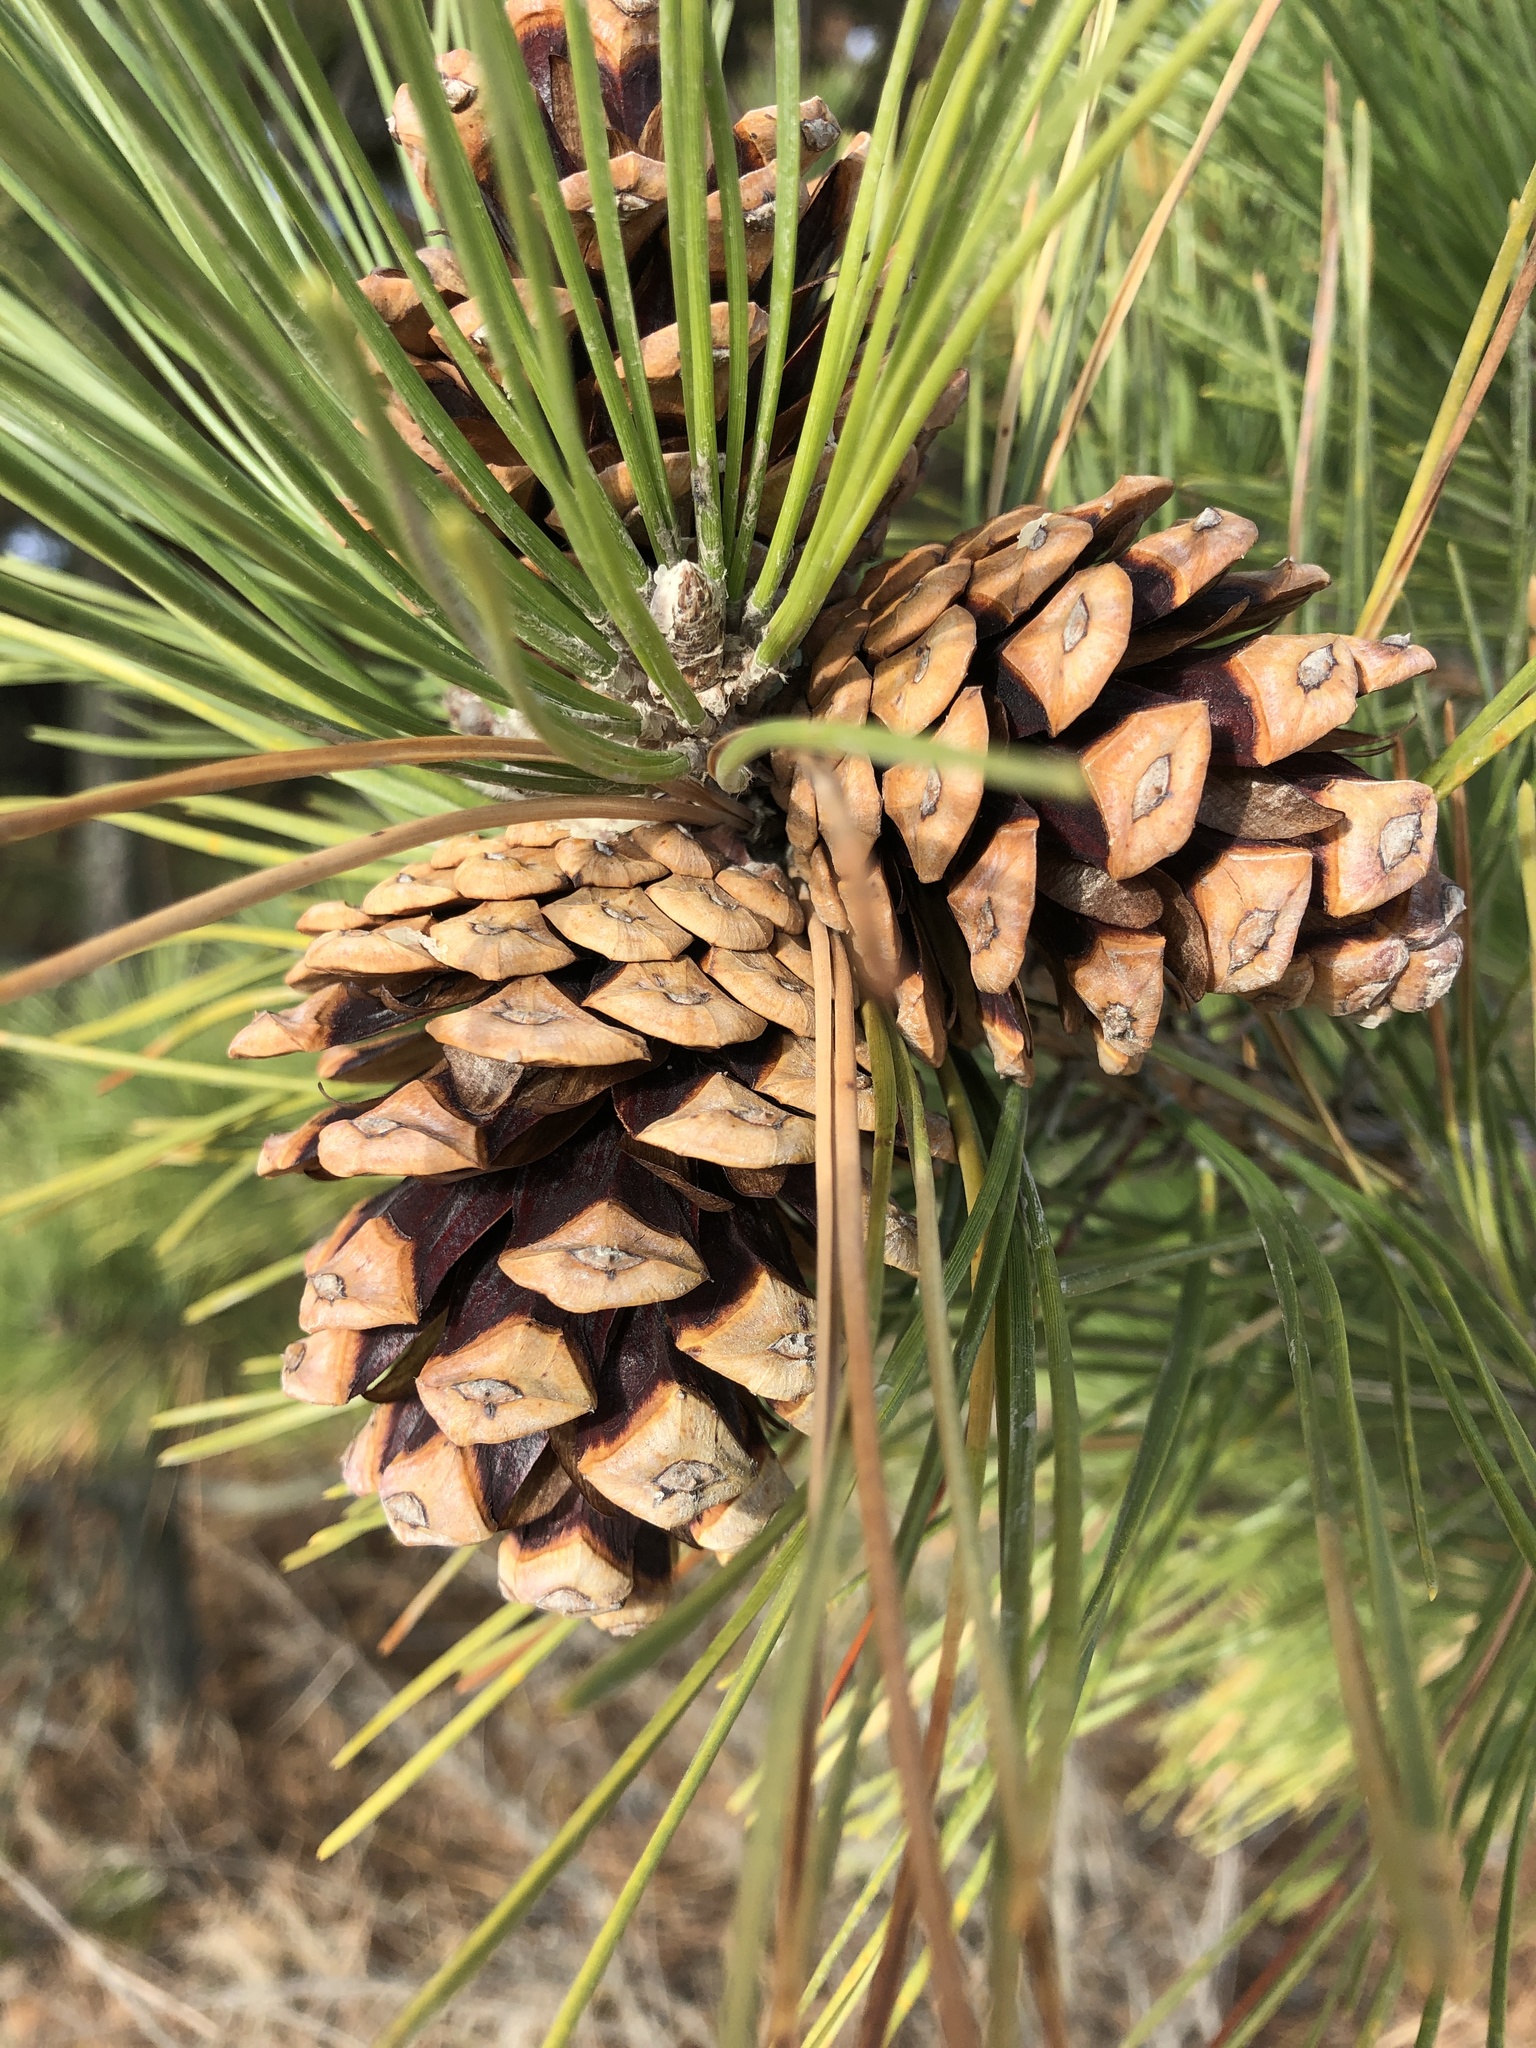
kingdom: Plantae
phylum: Tracheophyta
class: Pinopsida
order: Pinales
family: Pinaceae
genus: Pinus
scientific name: Pinus thunbergii
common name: Japanese black pine
